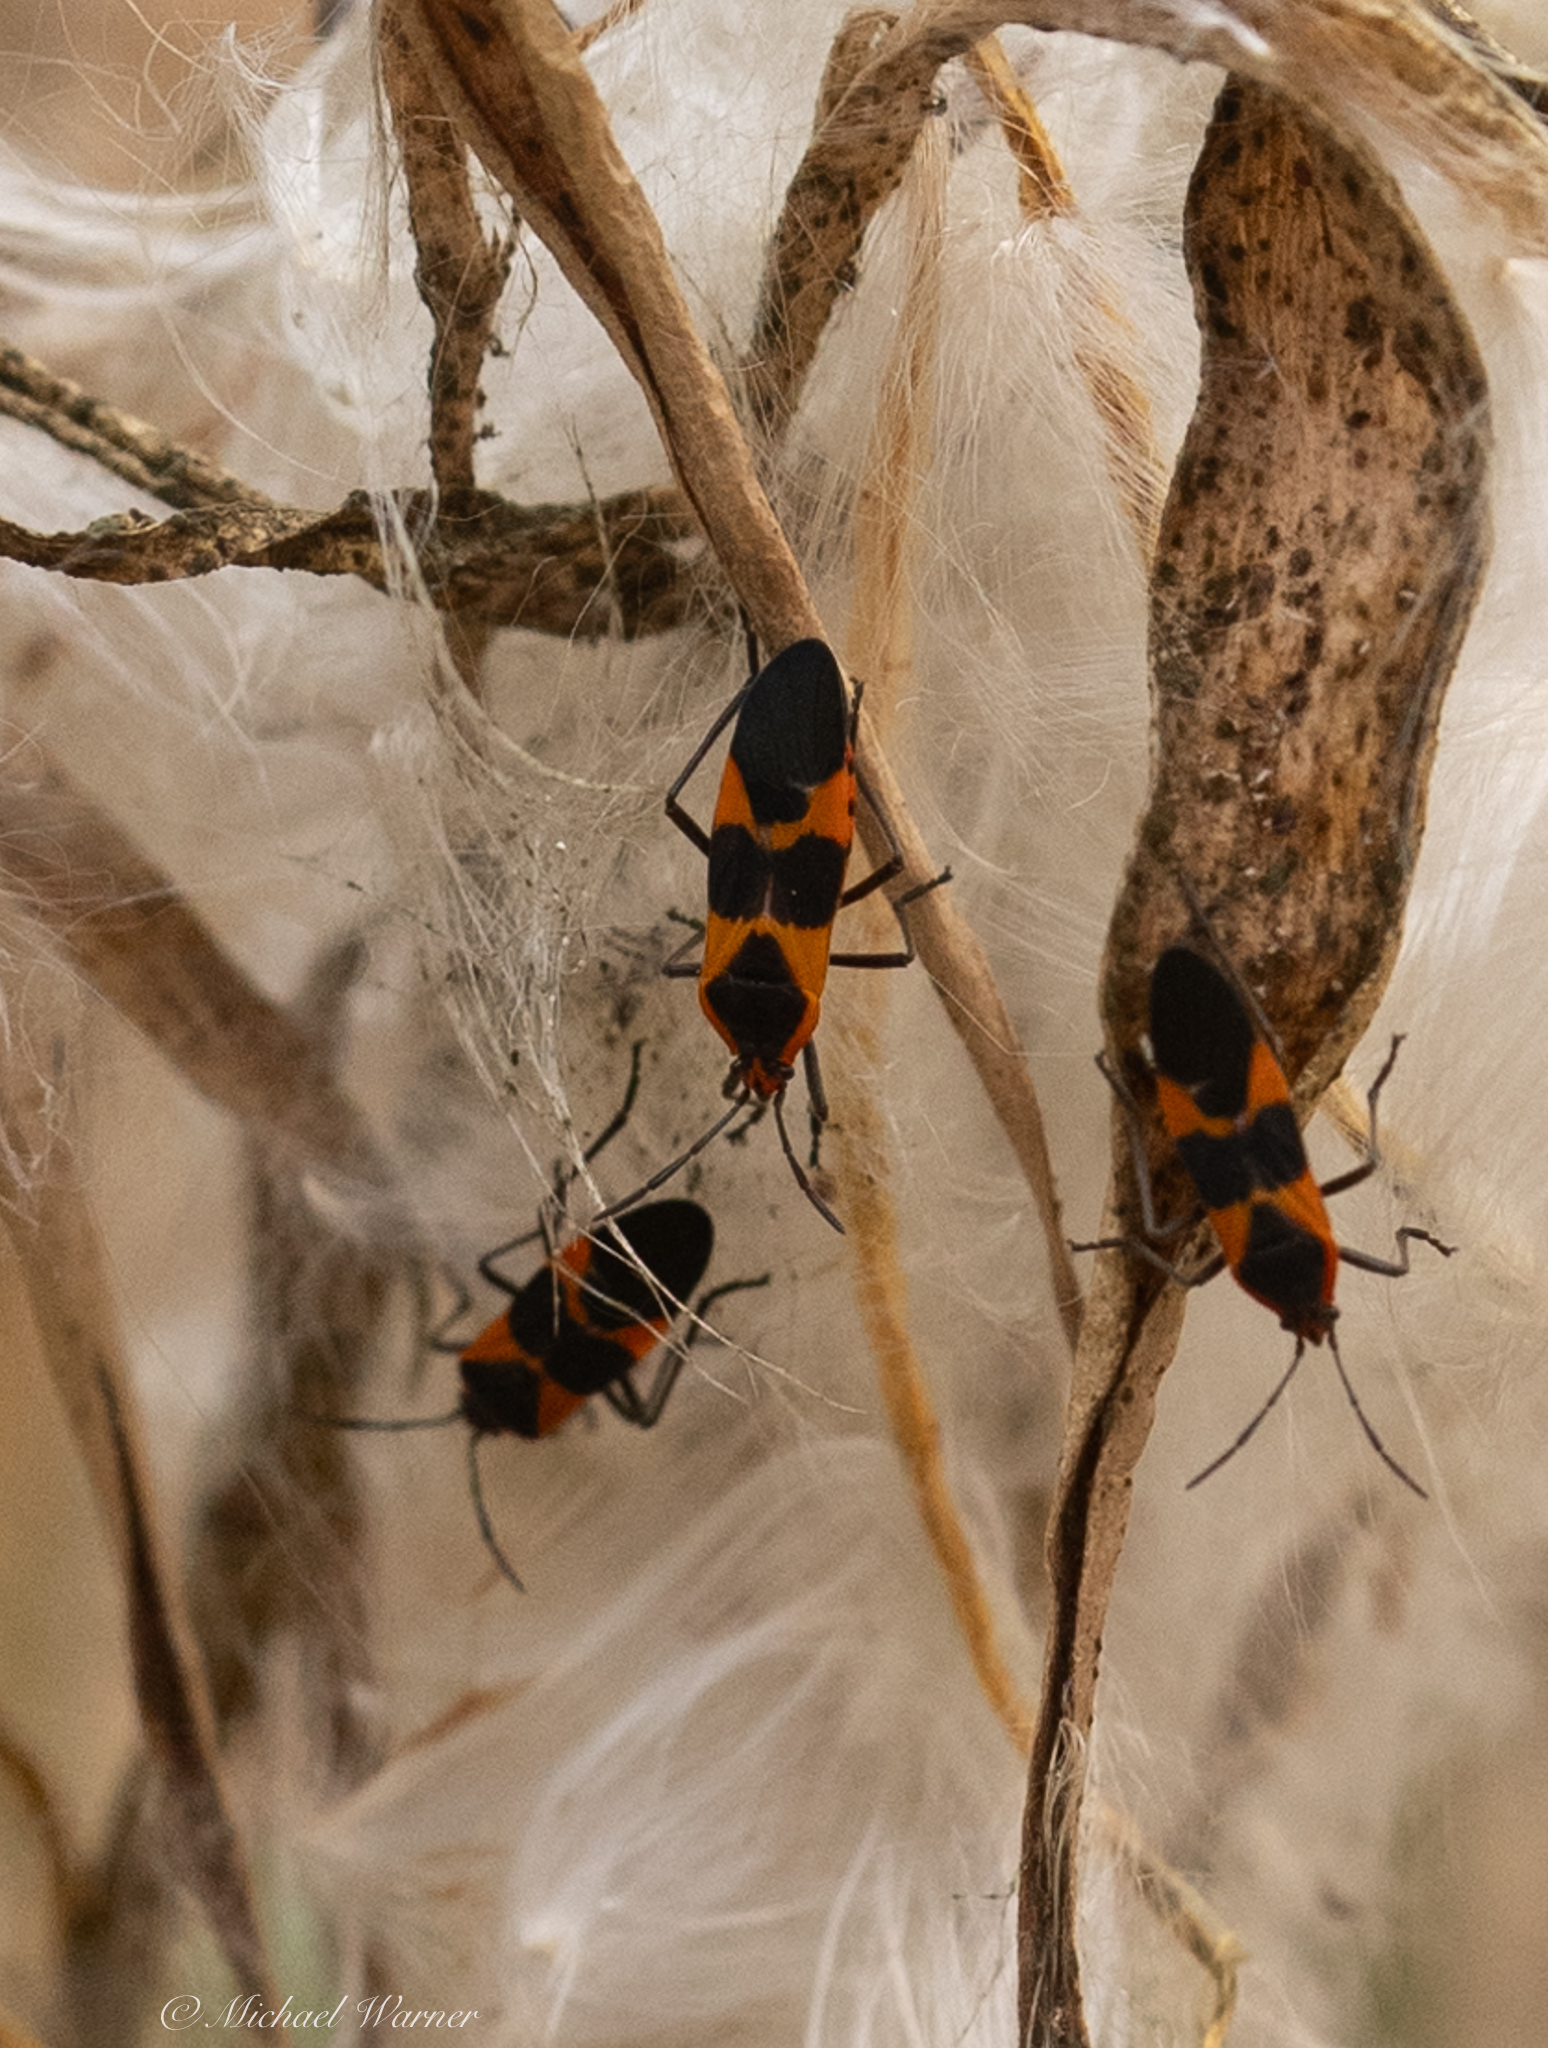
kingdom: Animalia
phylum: Arthropoda
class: Insecta
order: Hemiptera
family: Lygaeidae
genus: Oncopeltus
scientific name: Oncopeltus fasciatus
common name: Large milkweed bug
